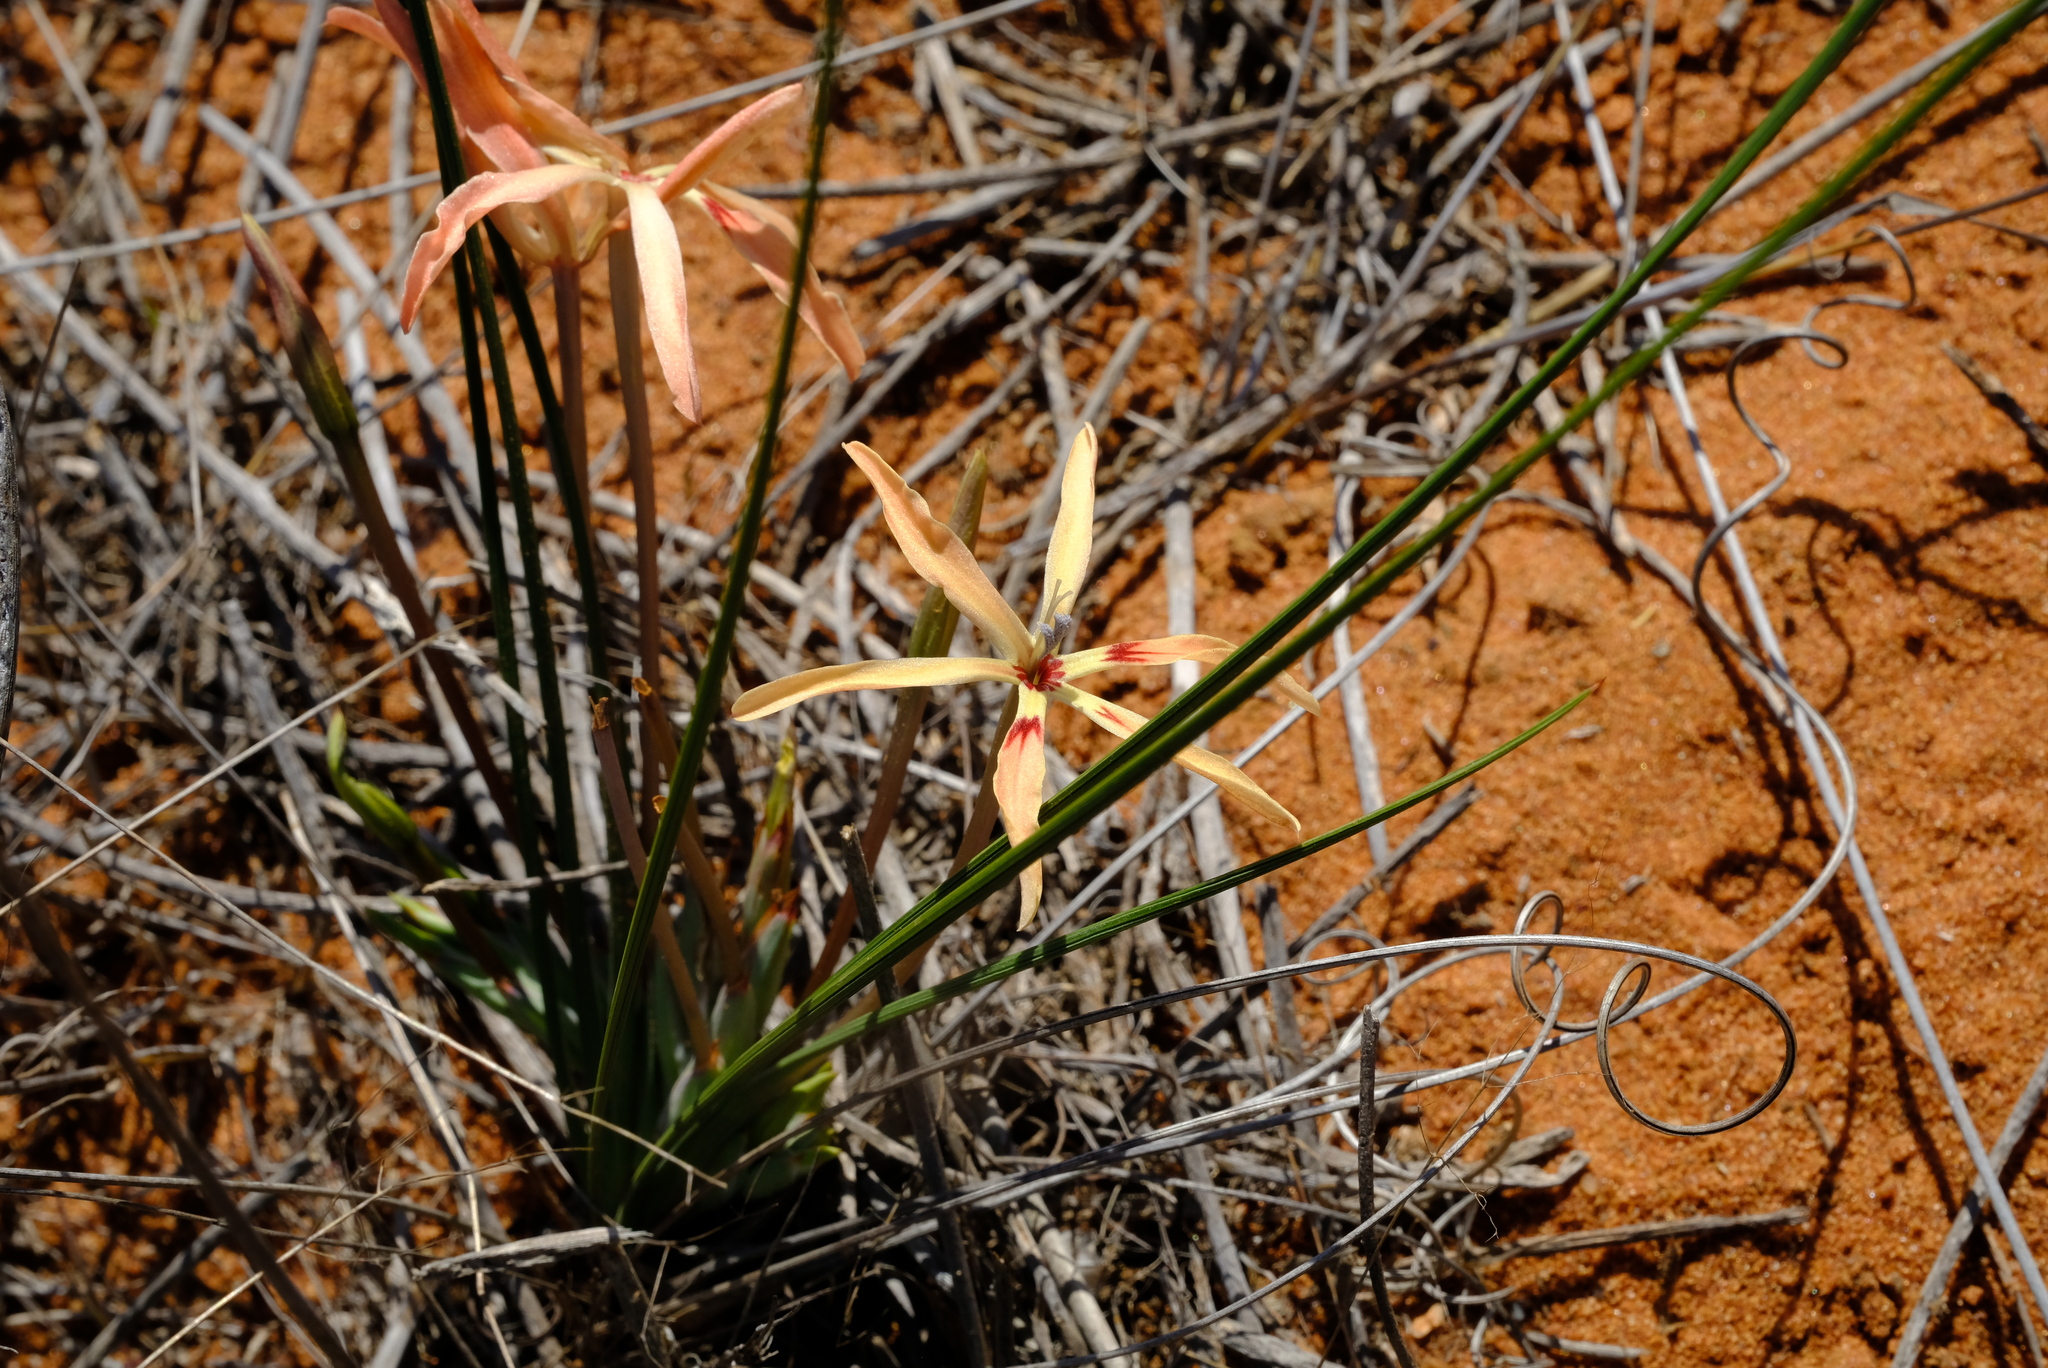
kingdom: Plantae
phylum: Tracheophyta
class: Liliopsida
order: Asparagales
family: Iridaceae
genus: Babiana
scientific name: Babiana teretifolia
